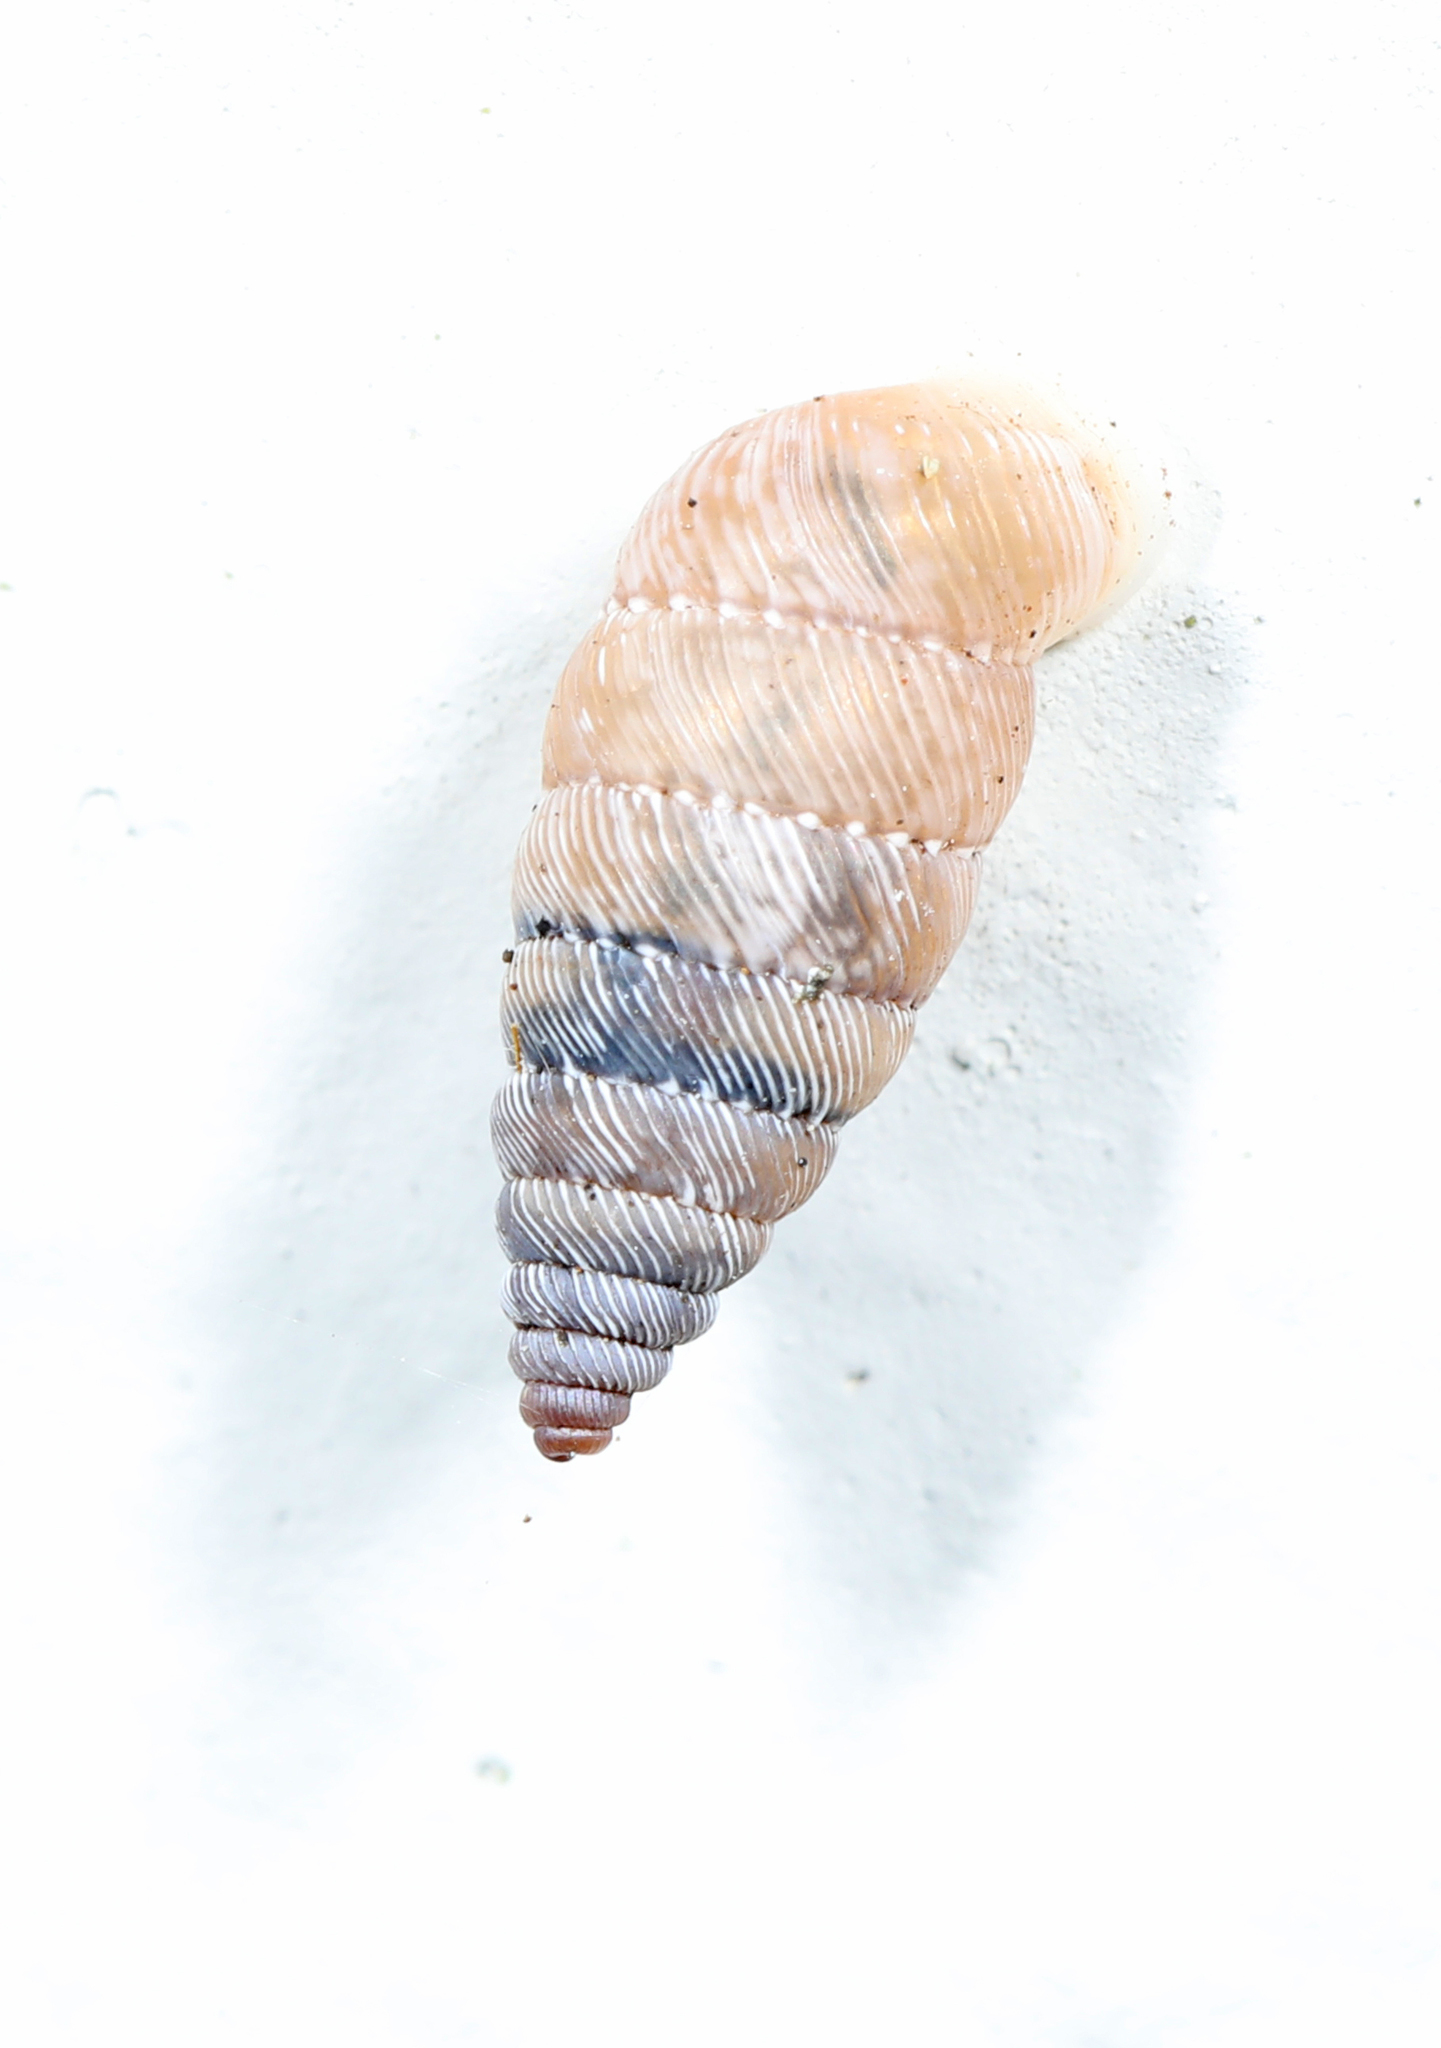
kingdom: Animalia
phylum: Mollusca
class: Gastropoda
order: Stylommatophora
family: Urocoptidae
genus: Microceramus
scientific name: Microceramus pontificus
